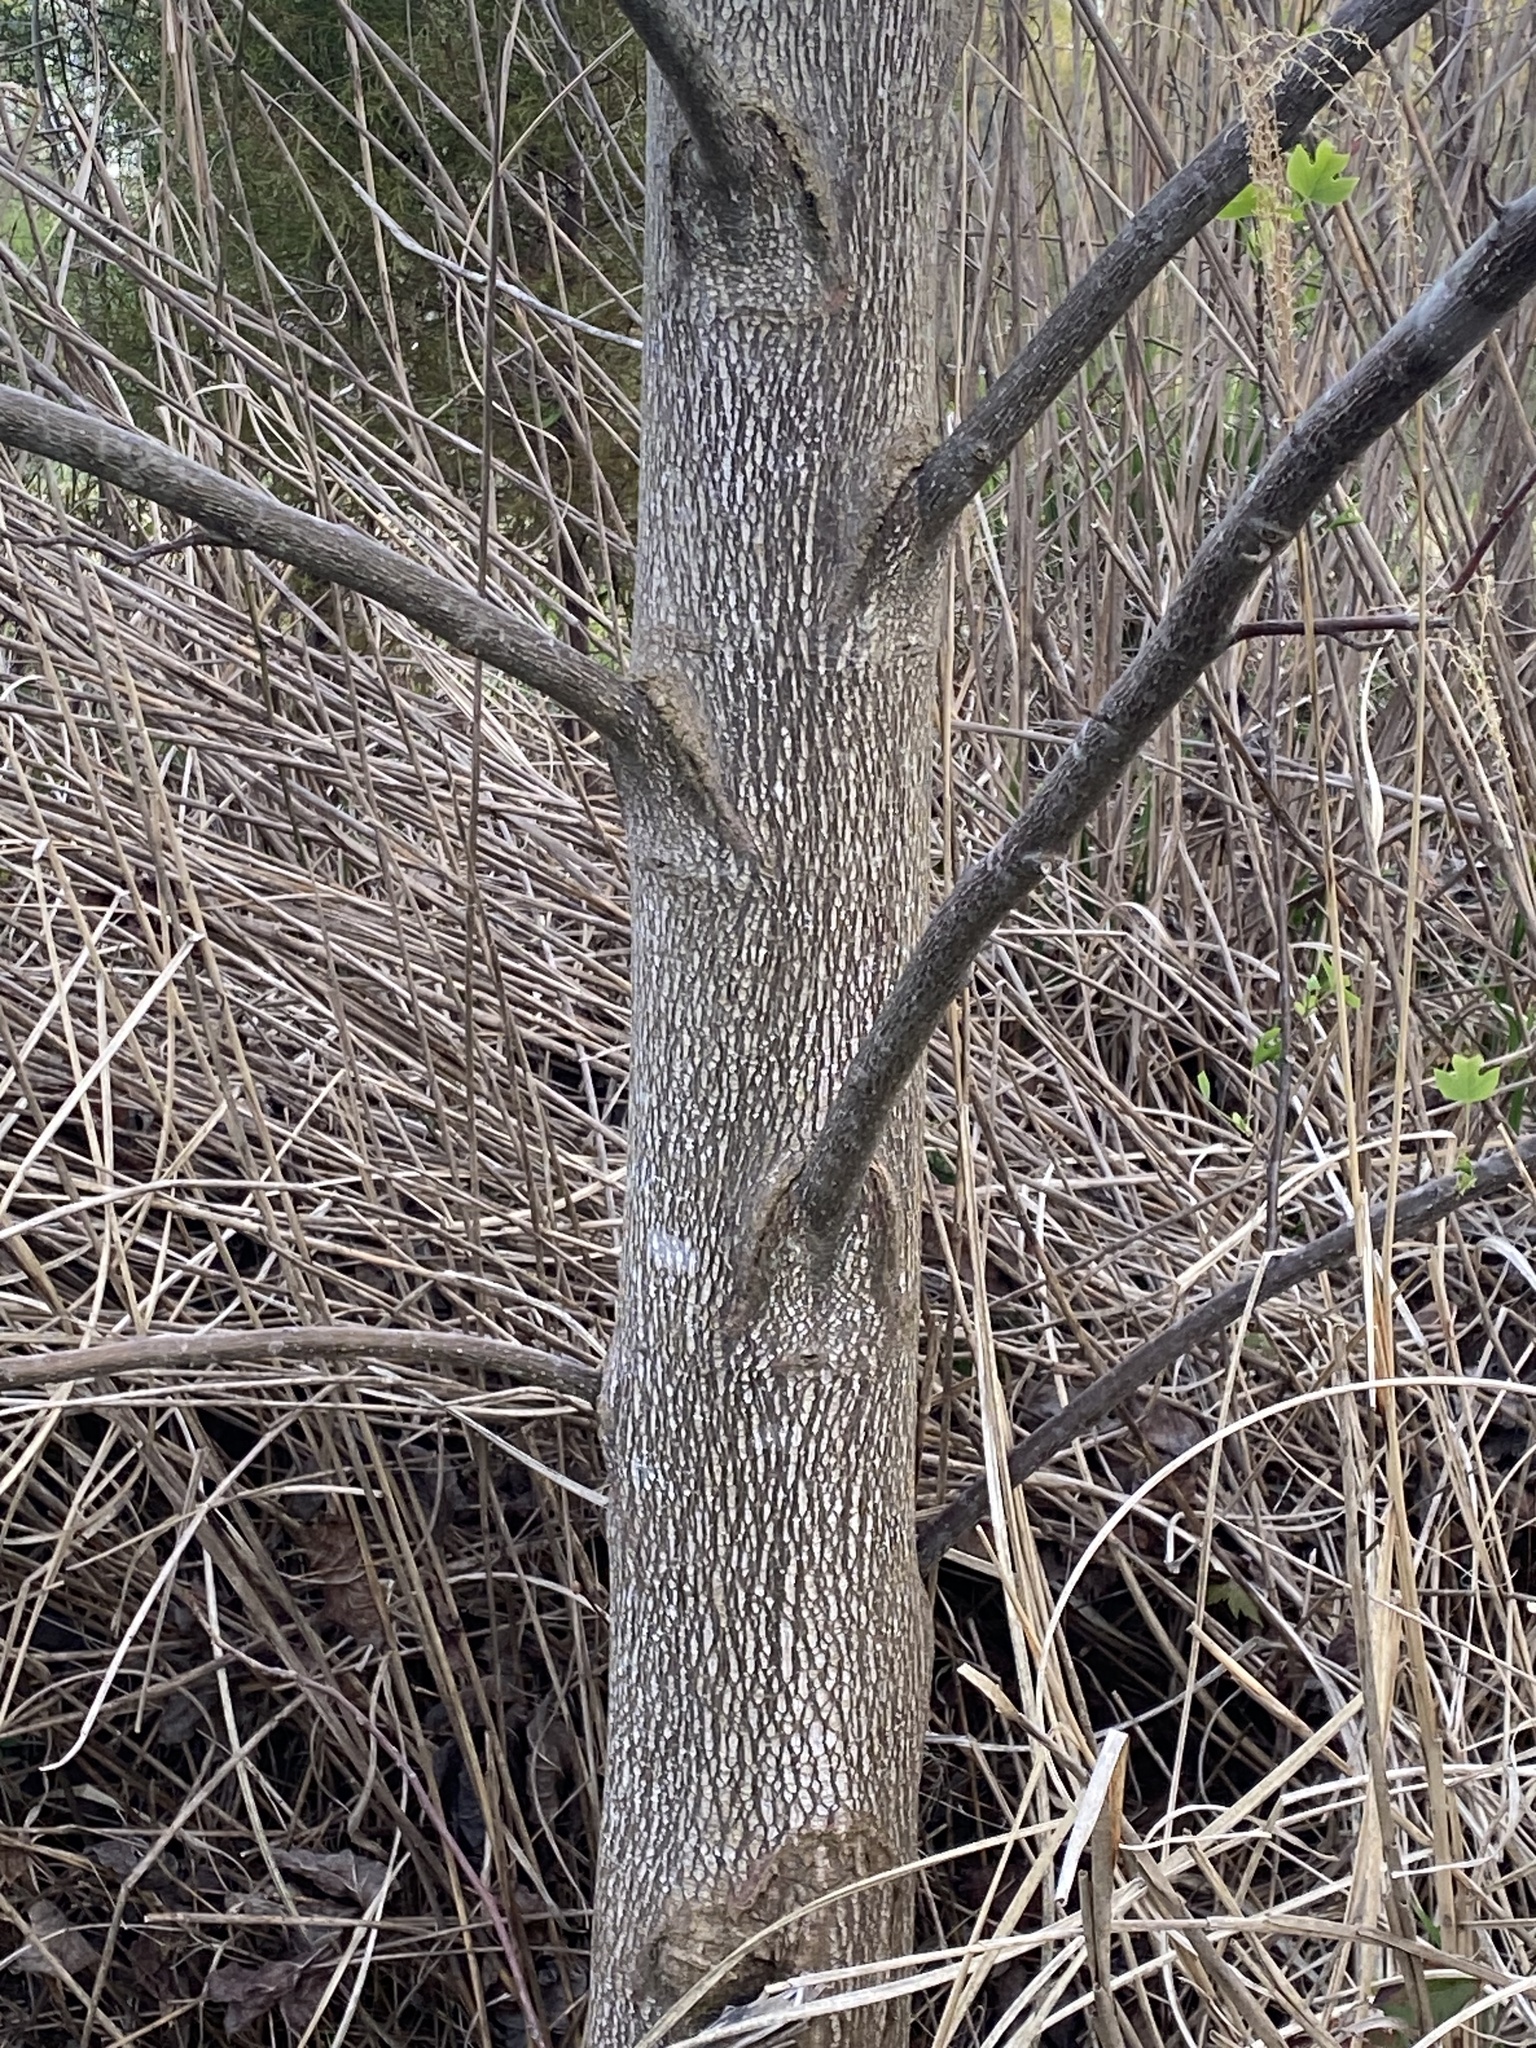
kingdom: Plantae
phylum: Tracheophyta
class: Magnoliopsida
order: Magnoliales
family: Magnoliaceae
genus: Liriodendron
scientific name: Liriodendron tulipifera
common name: Tulip tree
